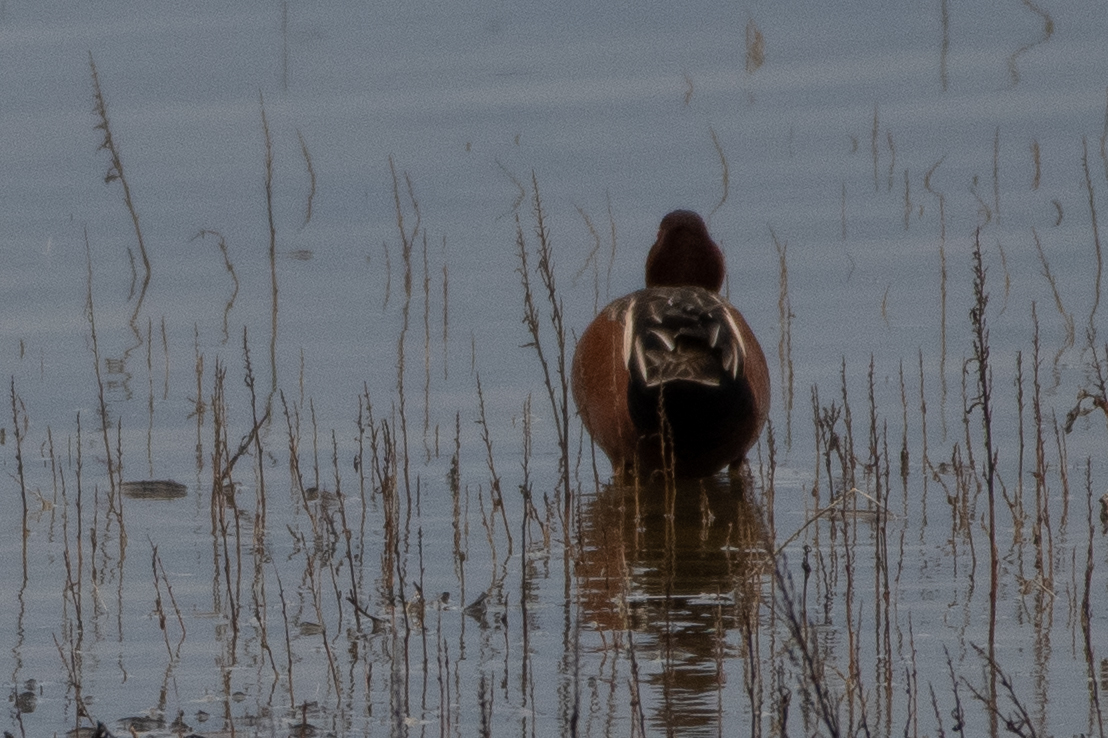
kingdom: Animalia
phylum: Chordata
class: Aves
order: Anseriformes
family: Anatidae
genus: Spatula
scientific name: Spatula cyanoptera
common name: Cinnamon teal
